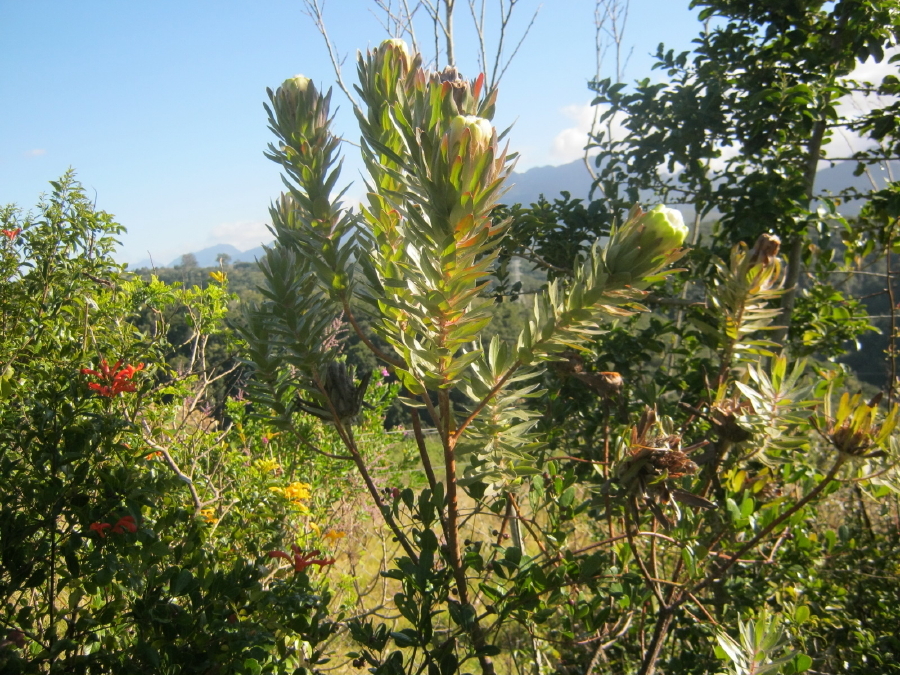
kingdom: Plantae
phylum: Tracheophyta
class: Magnoliopsida
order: Proteales
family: Proteaceae
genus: Protea
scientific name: Protea coronata
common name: Green sugarbush
